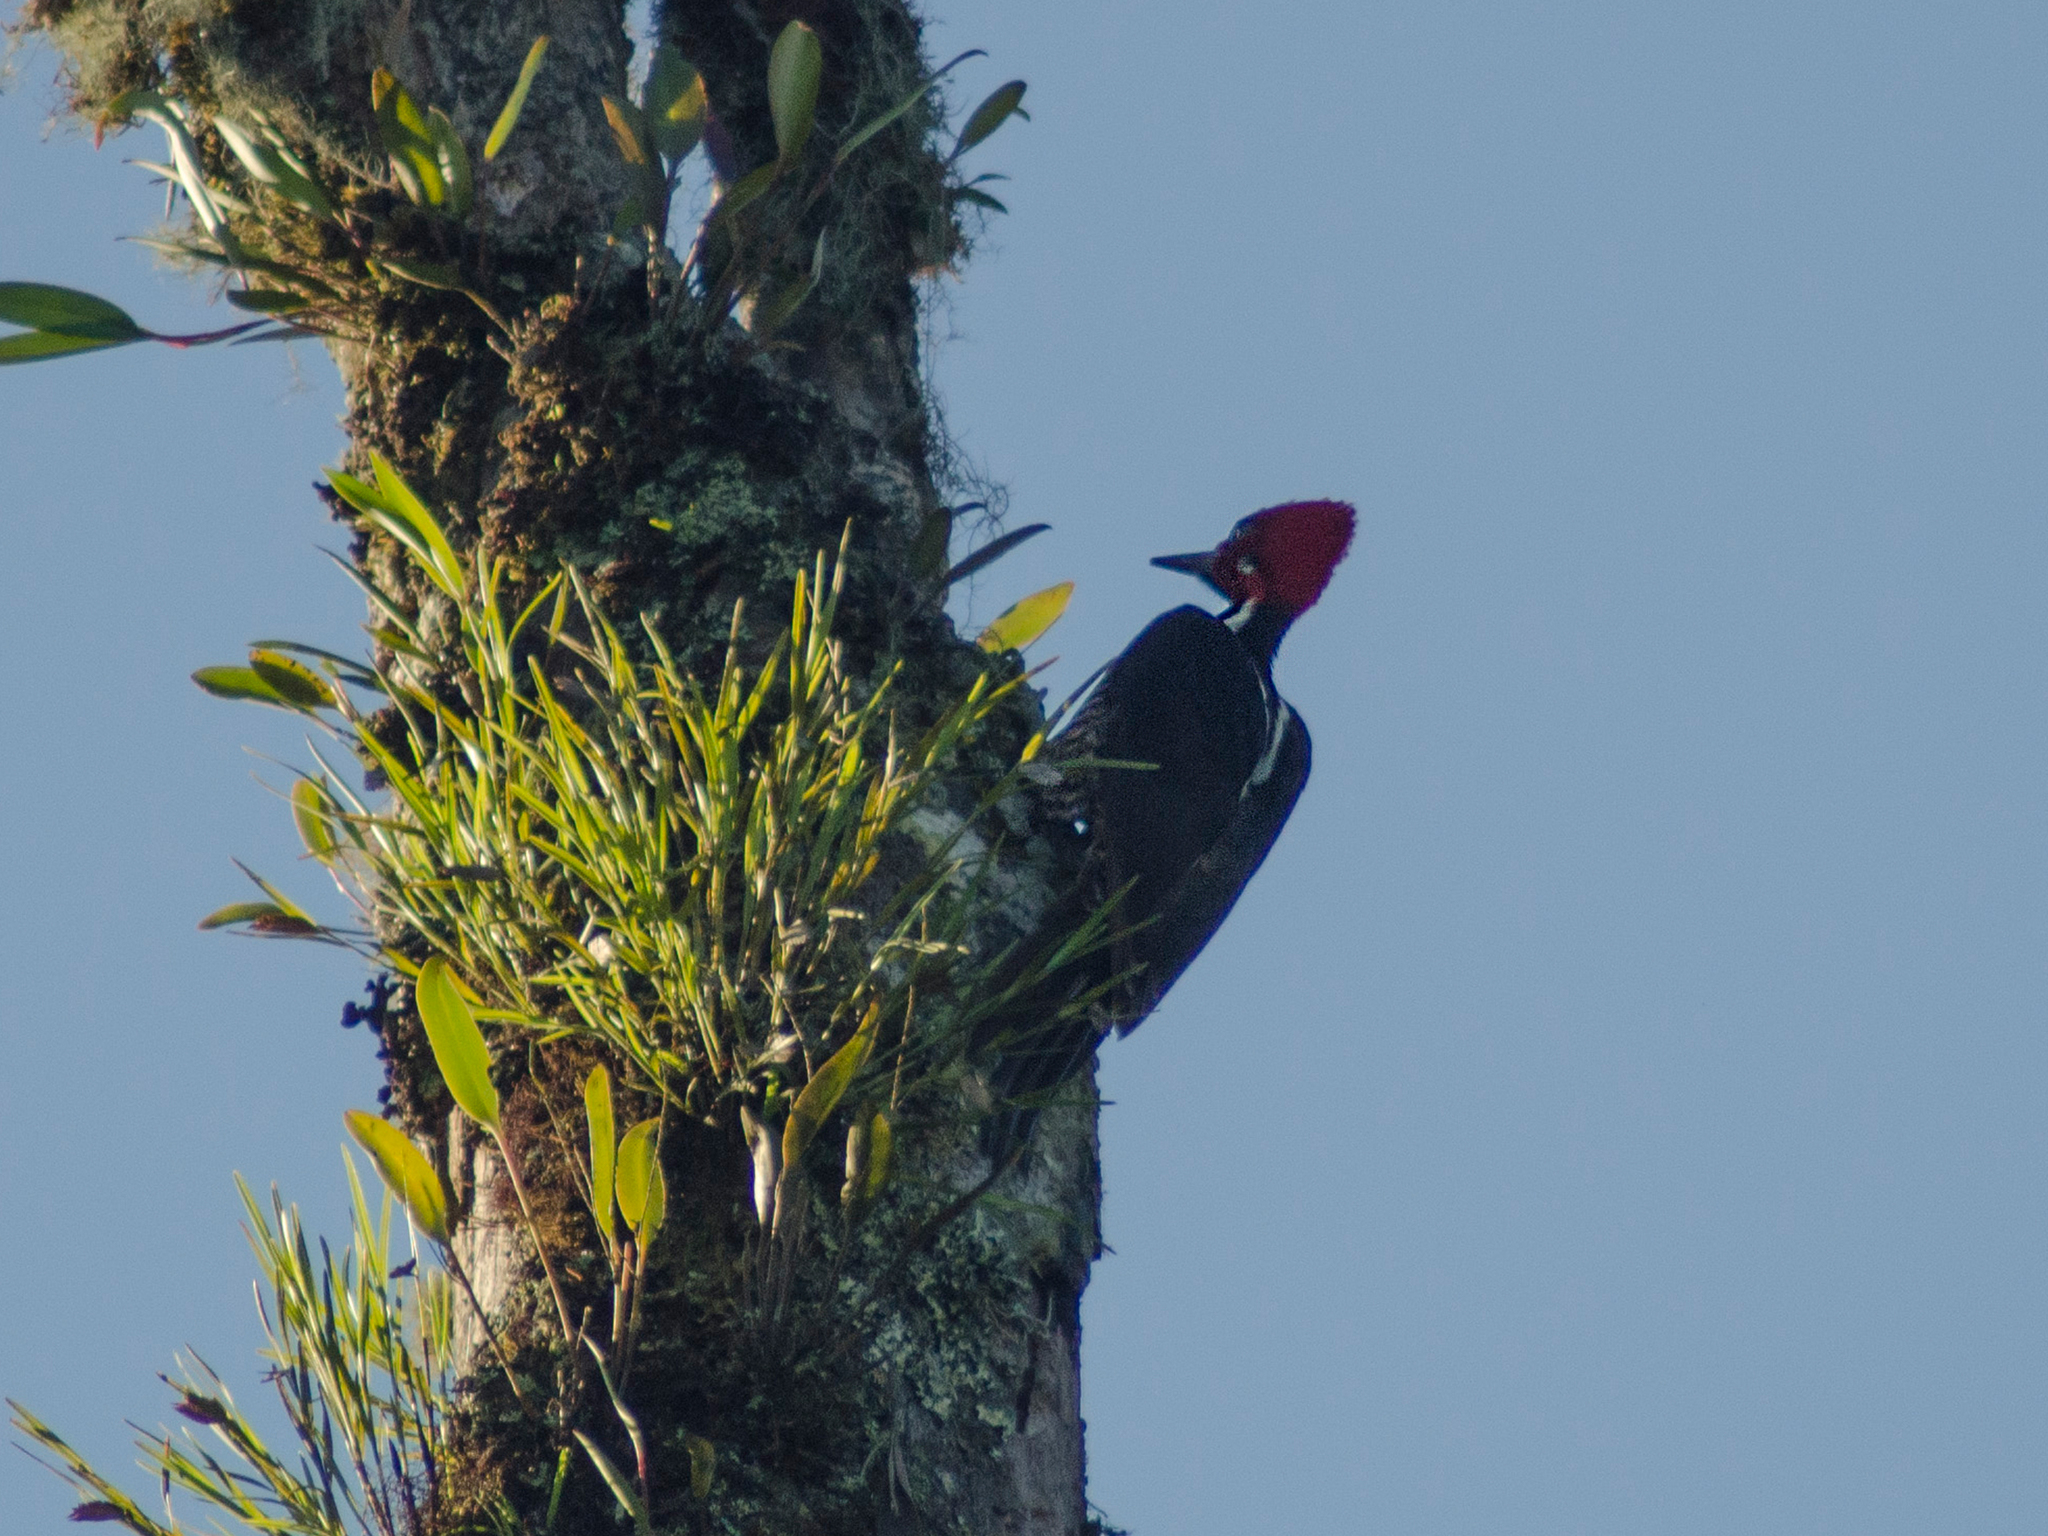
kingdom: Animalia
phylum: Chordata
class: Aves
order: Piciformes
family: Picidae
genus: Campephilus
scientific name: Campephilus gayaquilensis
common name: Guayaquil woodpecker
